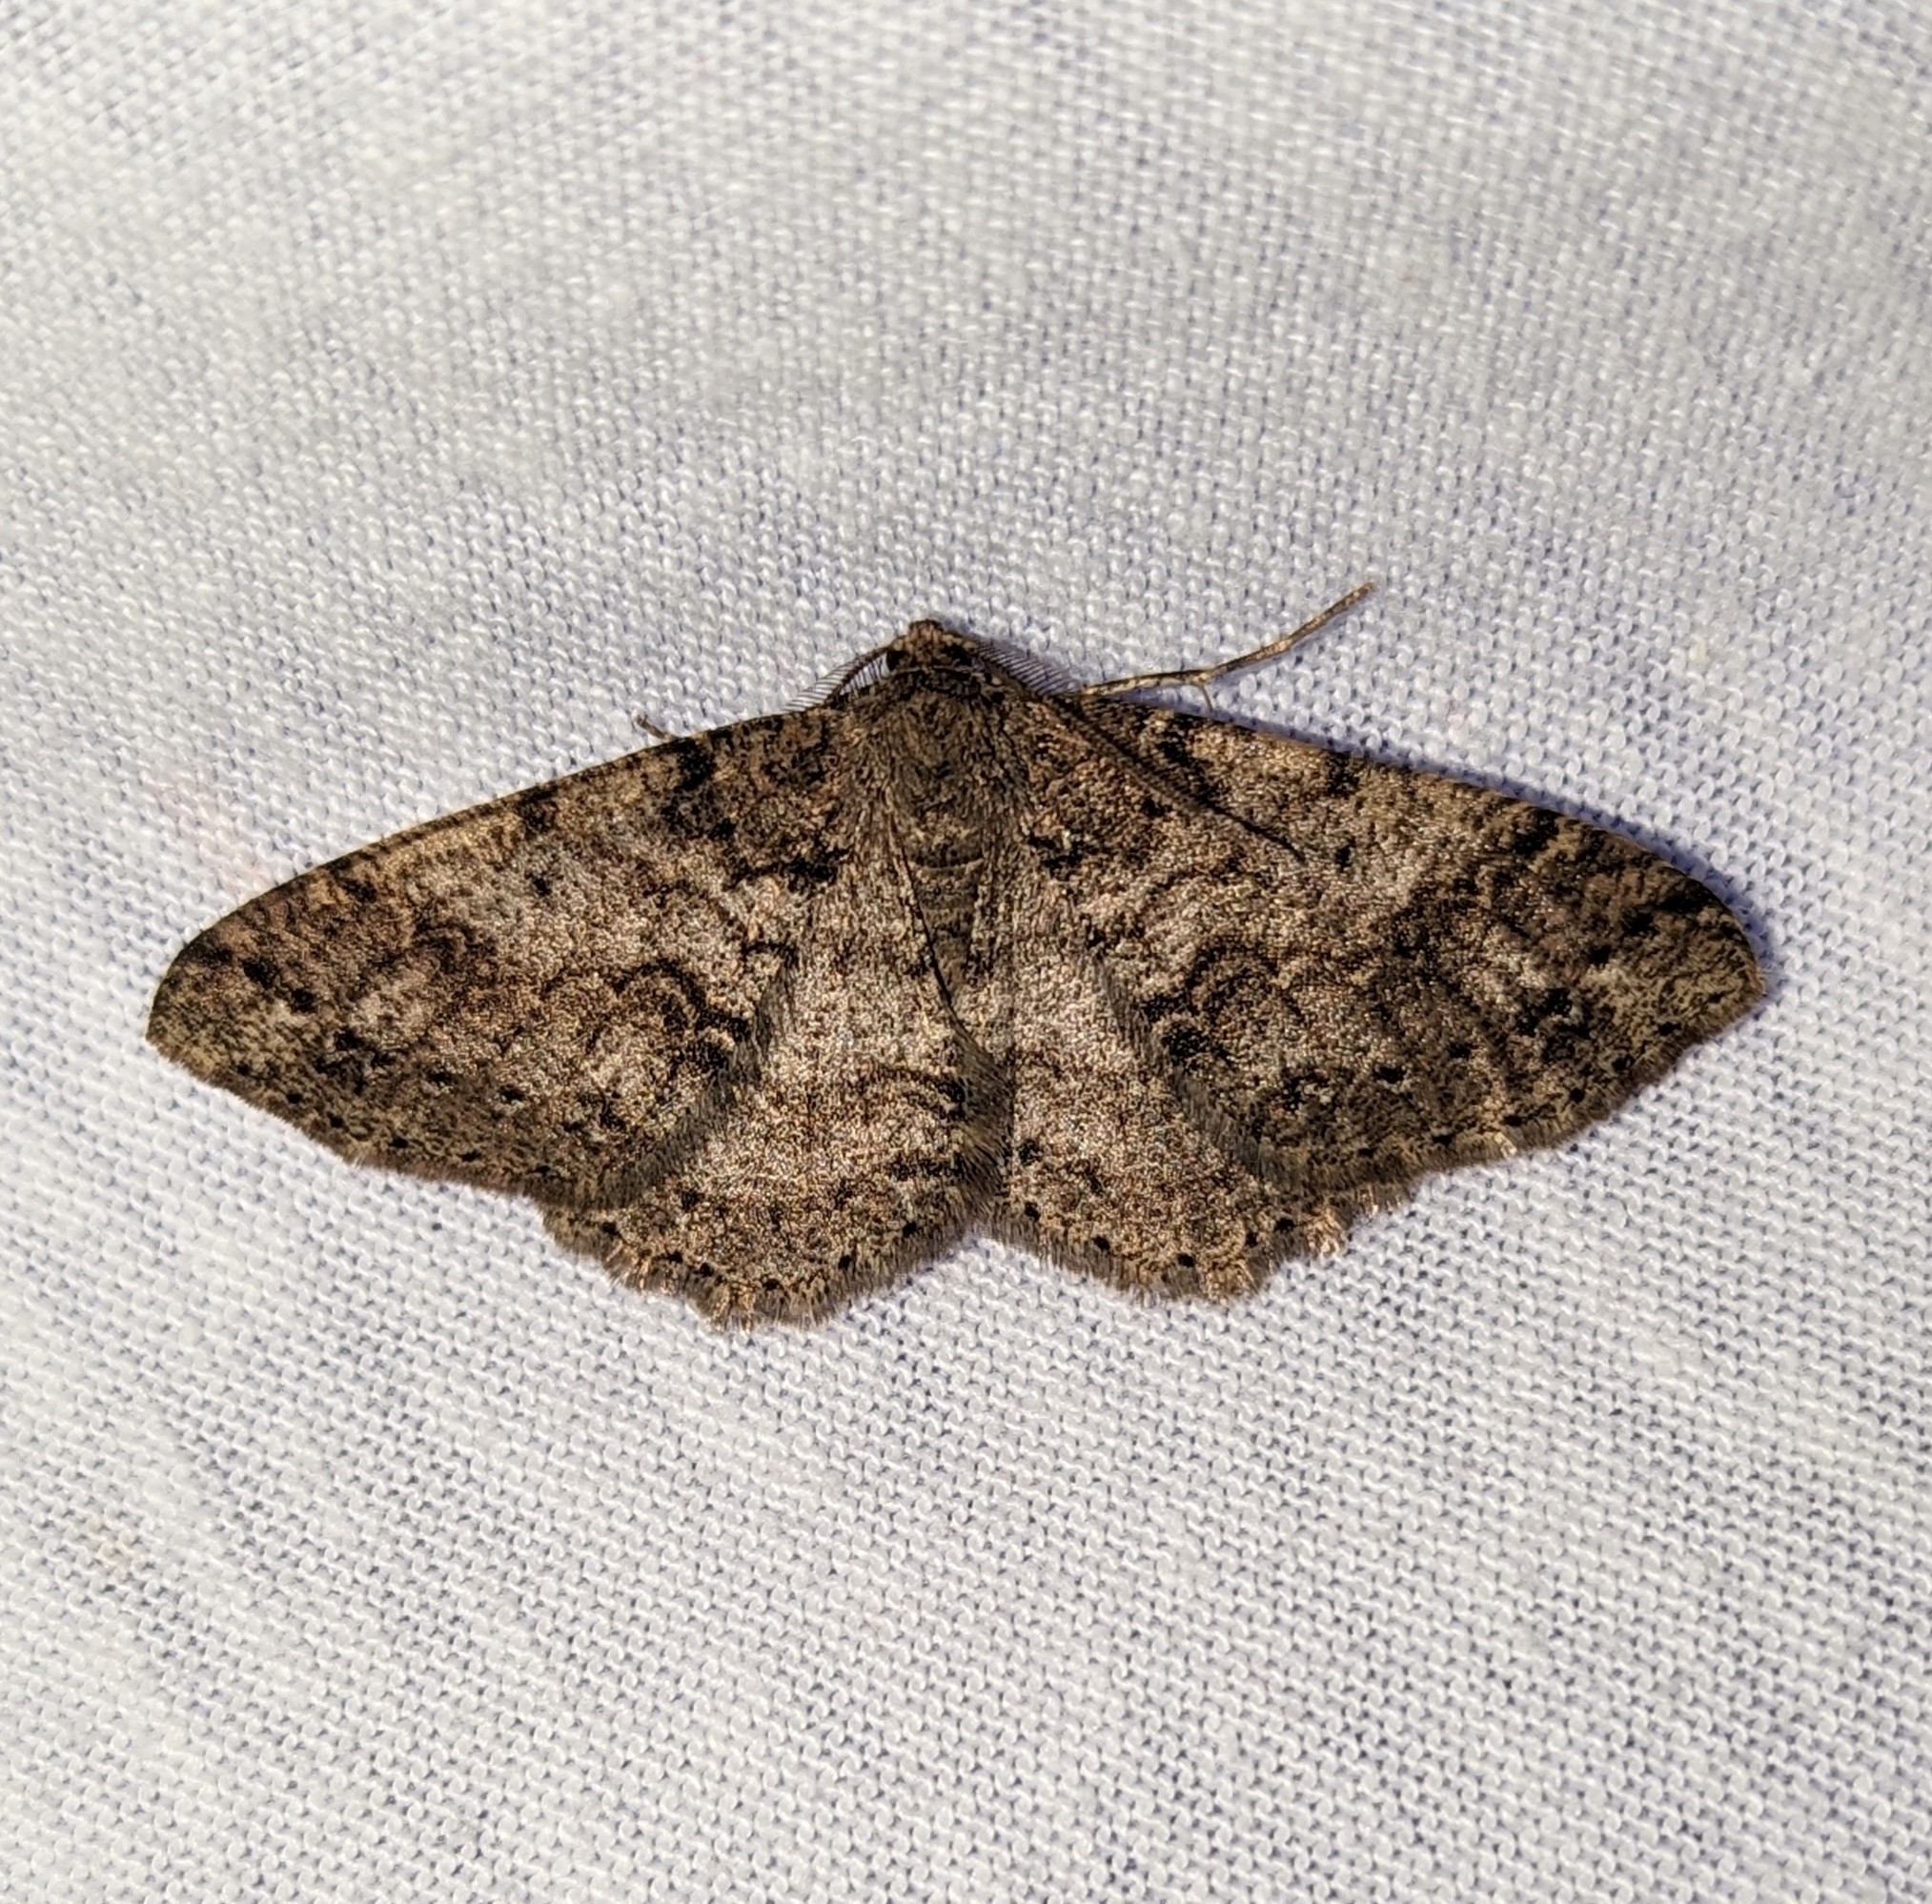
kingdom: Animalia
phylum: Arthropoda
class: Insecta
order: Lepidoptera
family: Geometridae
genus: Melanolophia
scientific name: Melanolophia imitata
